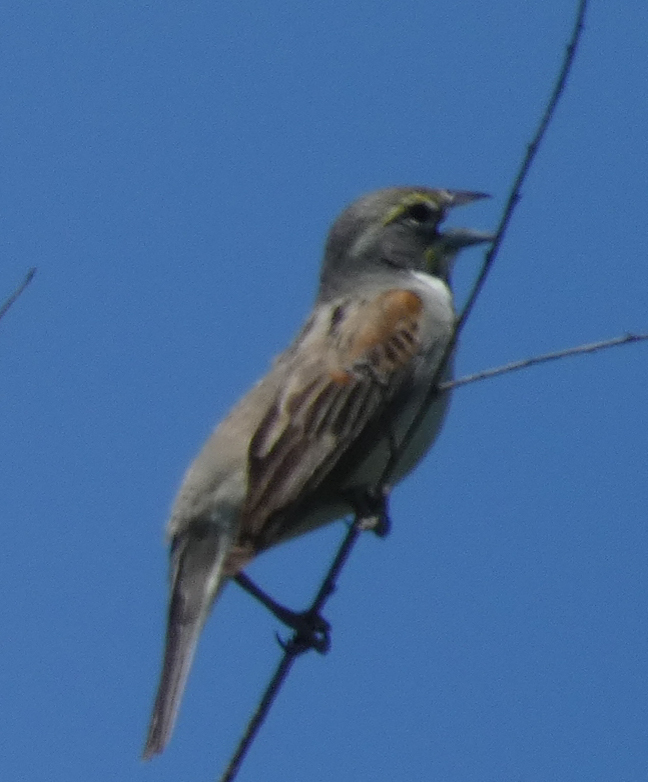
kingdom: Animalia
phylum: Chordata
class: Aves
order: Passeriformes
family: Cardinalidae
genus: Spiza
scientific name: Spiza americana
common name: Dickcissel
